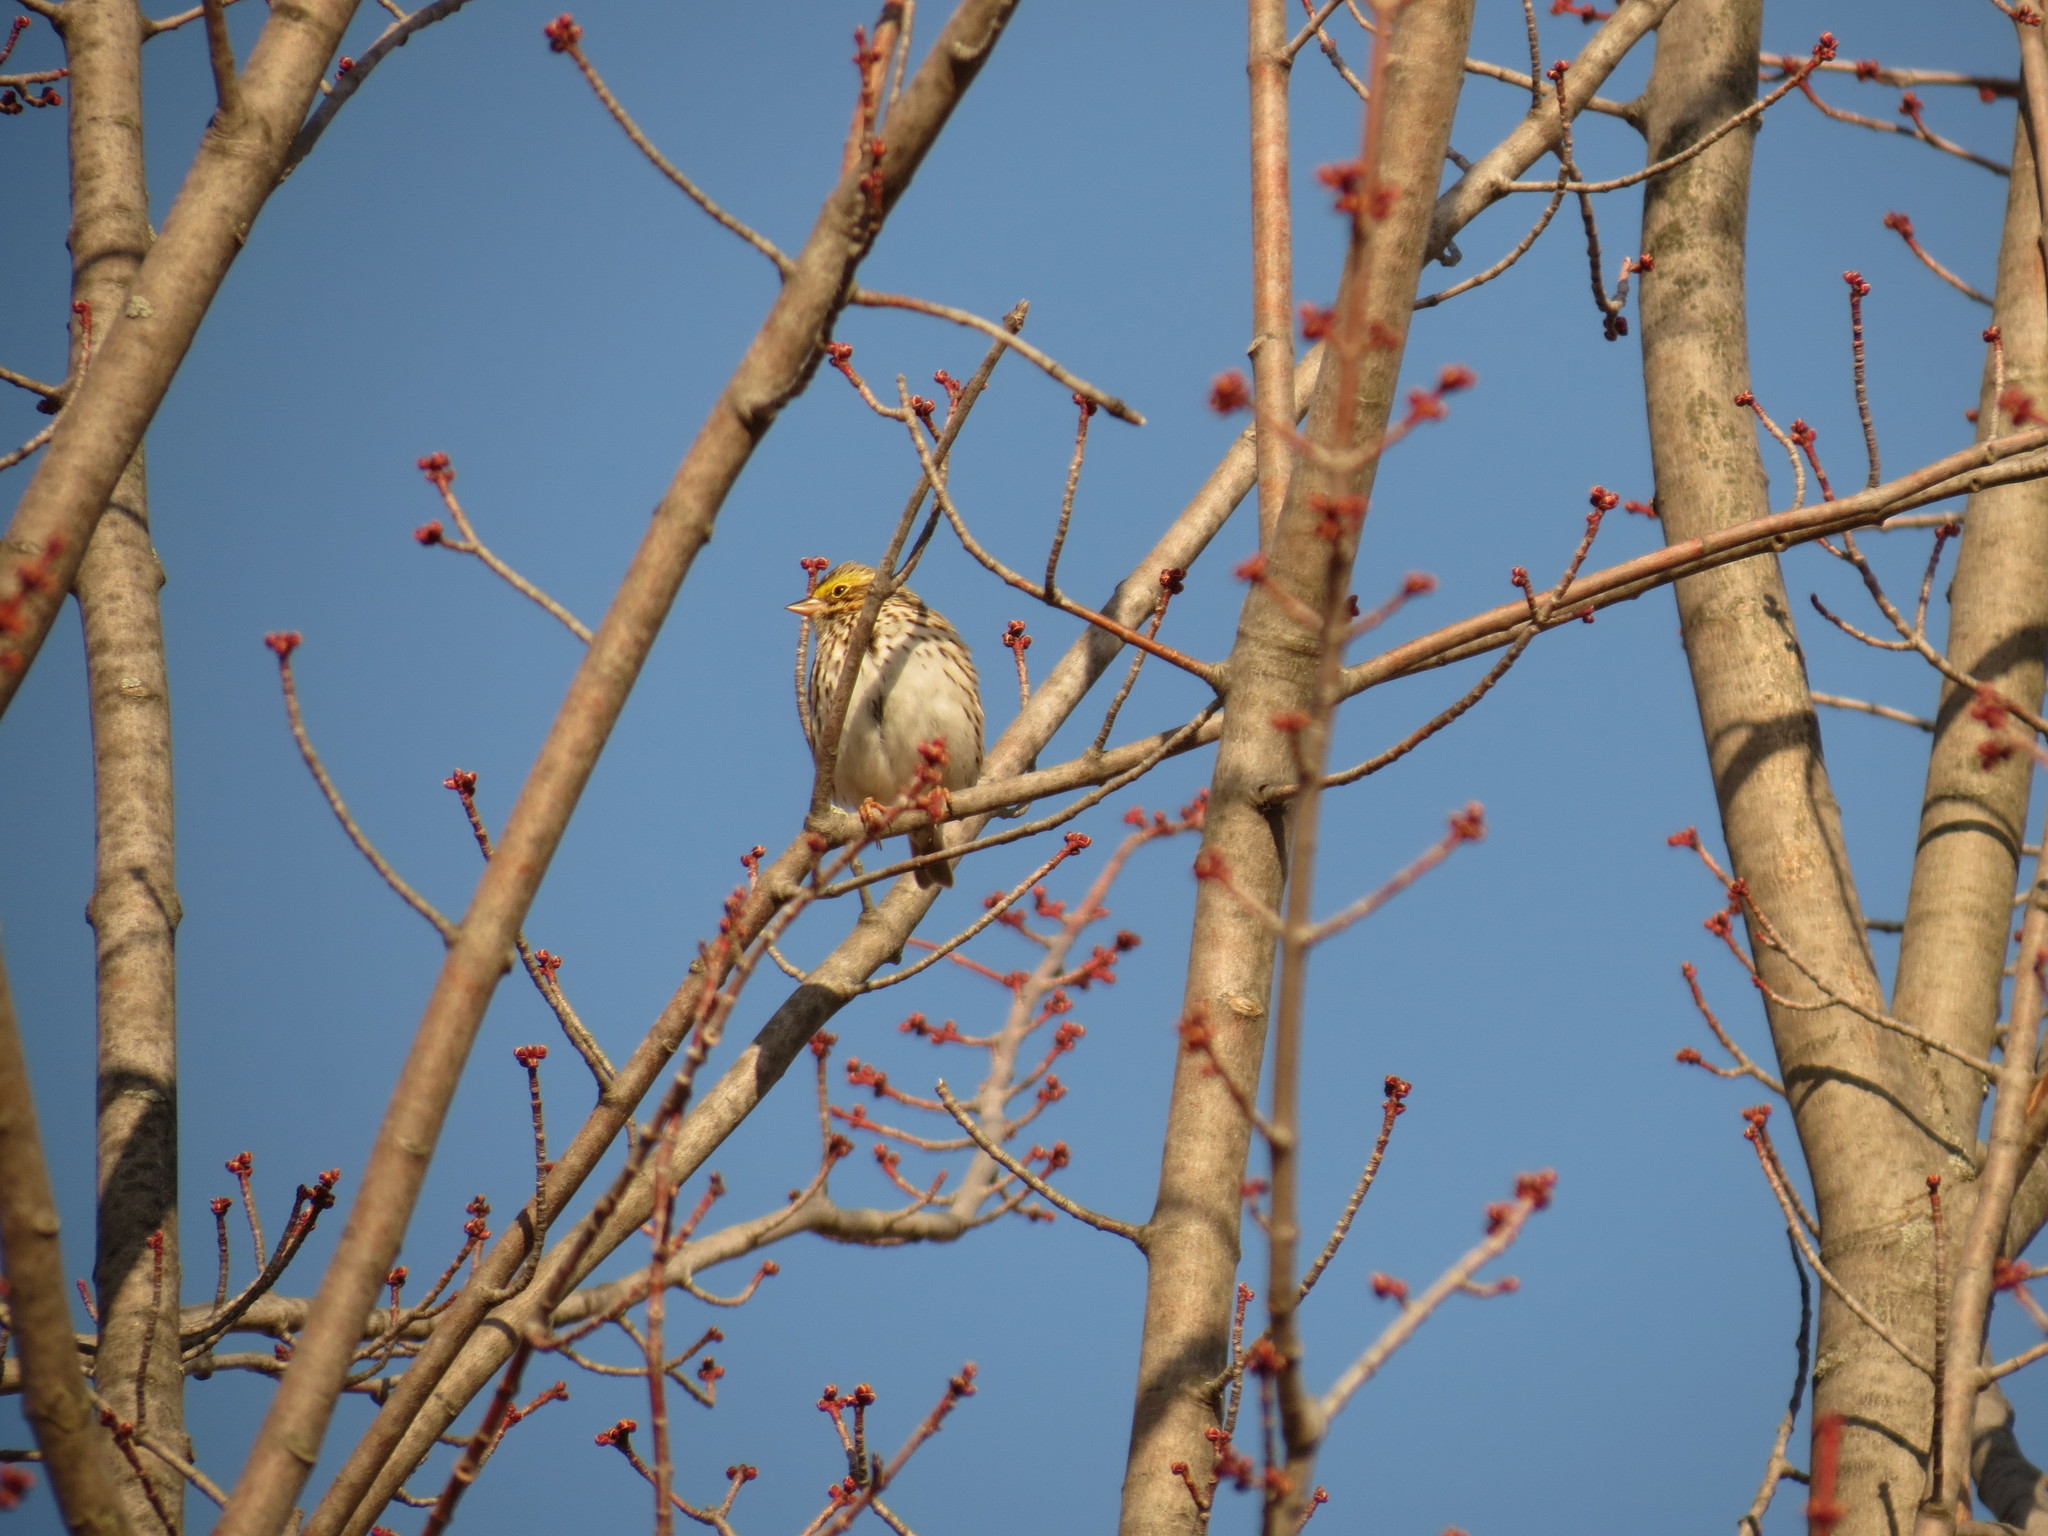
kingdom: Animalia
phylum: Chordata
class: Aves
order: Passeriformes
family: Passerellidae
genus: Passerculus
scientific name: Passerculus sandwichensis
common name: Savannah sparrow
